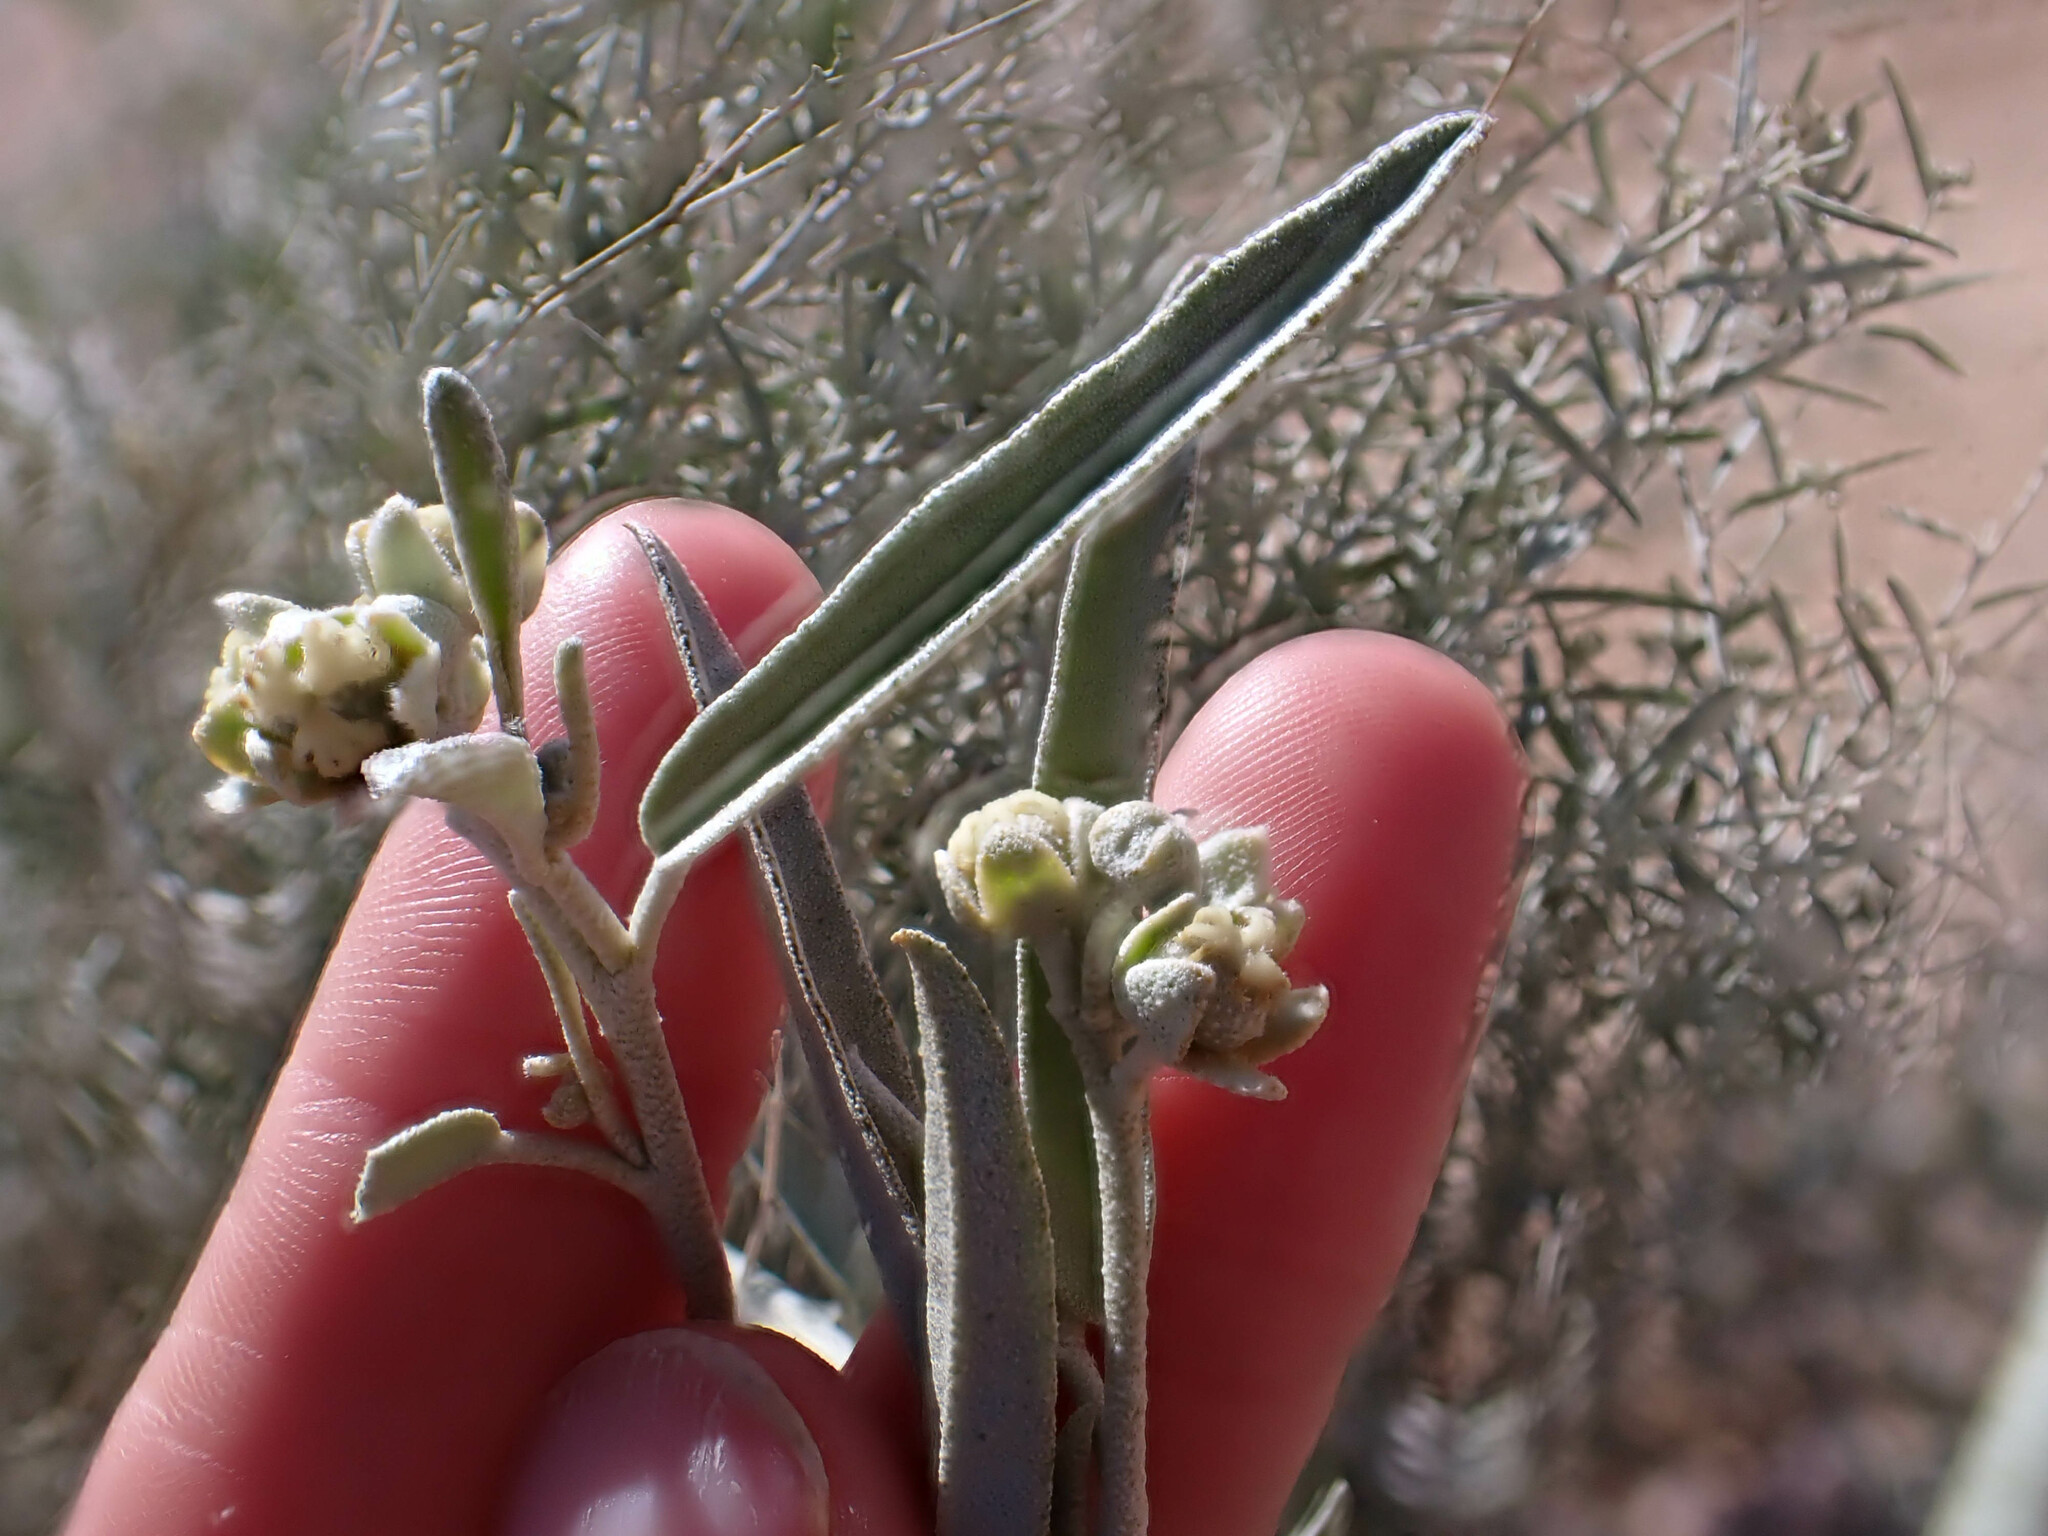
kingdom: Plantae
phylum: Tracheophyta
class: Magnoliopsida
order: Malpighiales
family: Euphorbiaceae
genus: Croton
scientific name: Croton wigginsii
